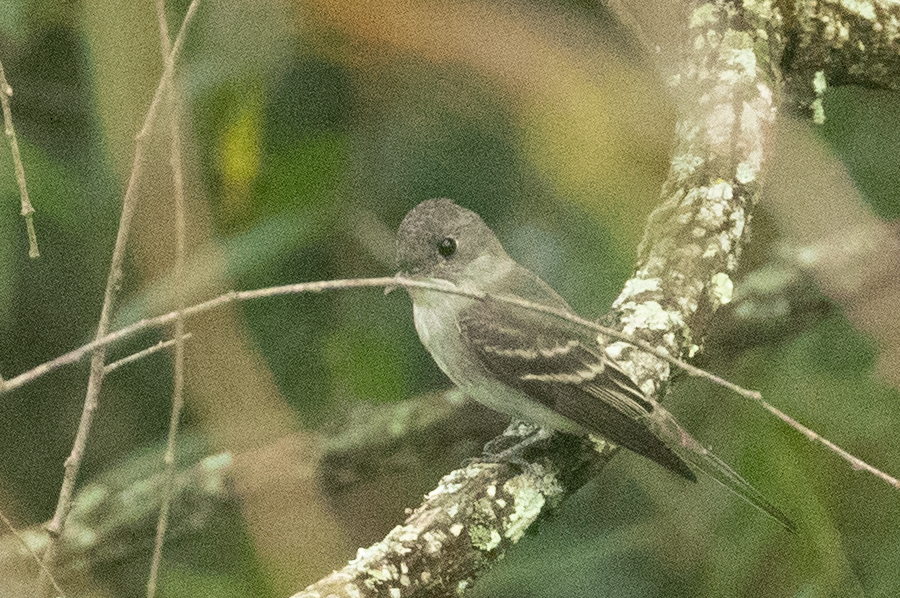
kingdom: Animalia
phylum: Chordata
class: Aves
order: Passeriformes
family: Tyrannidae
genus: Contopus
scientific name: Contopus virens
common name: Eastern wood-pewee
